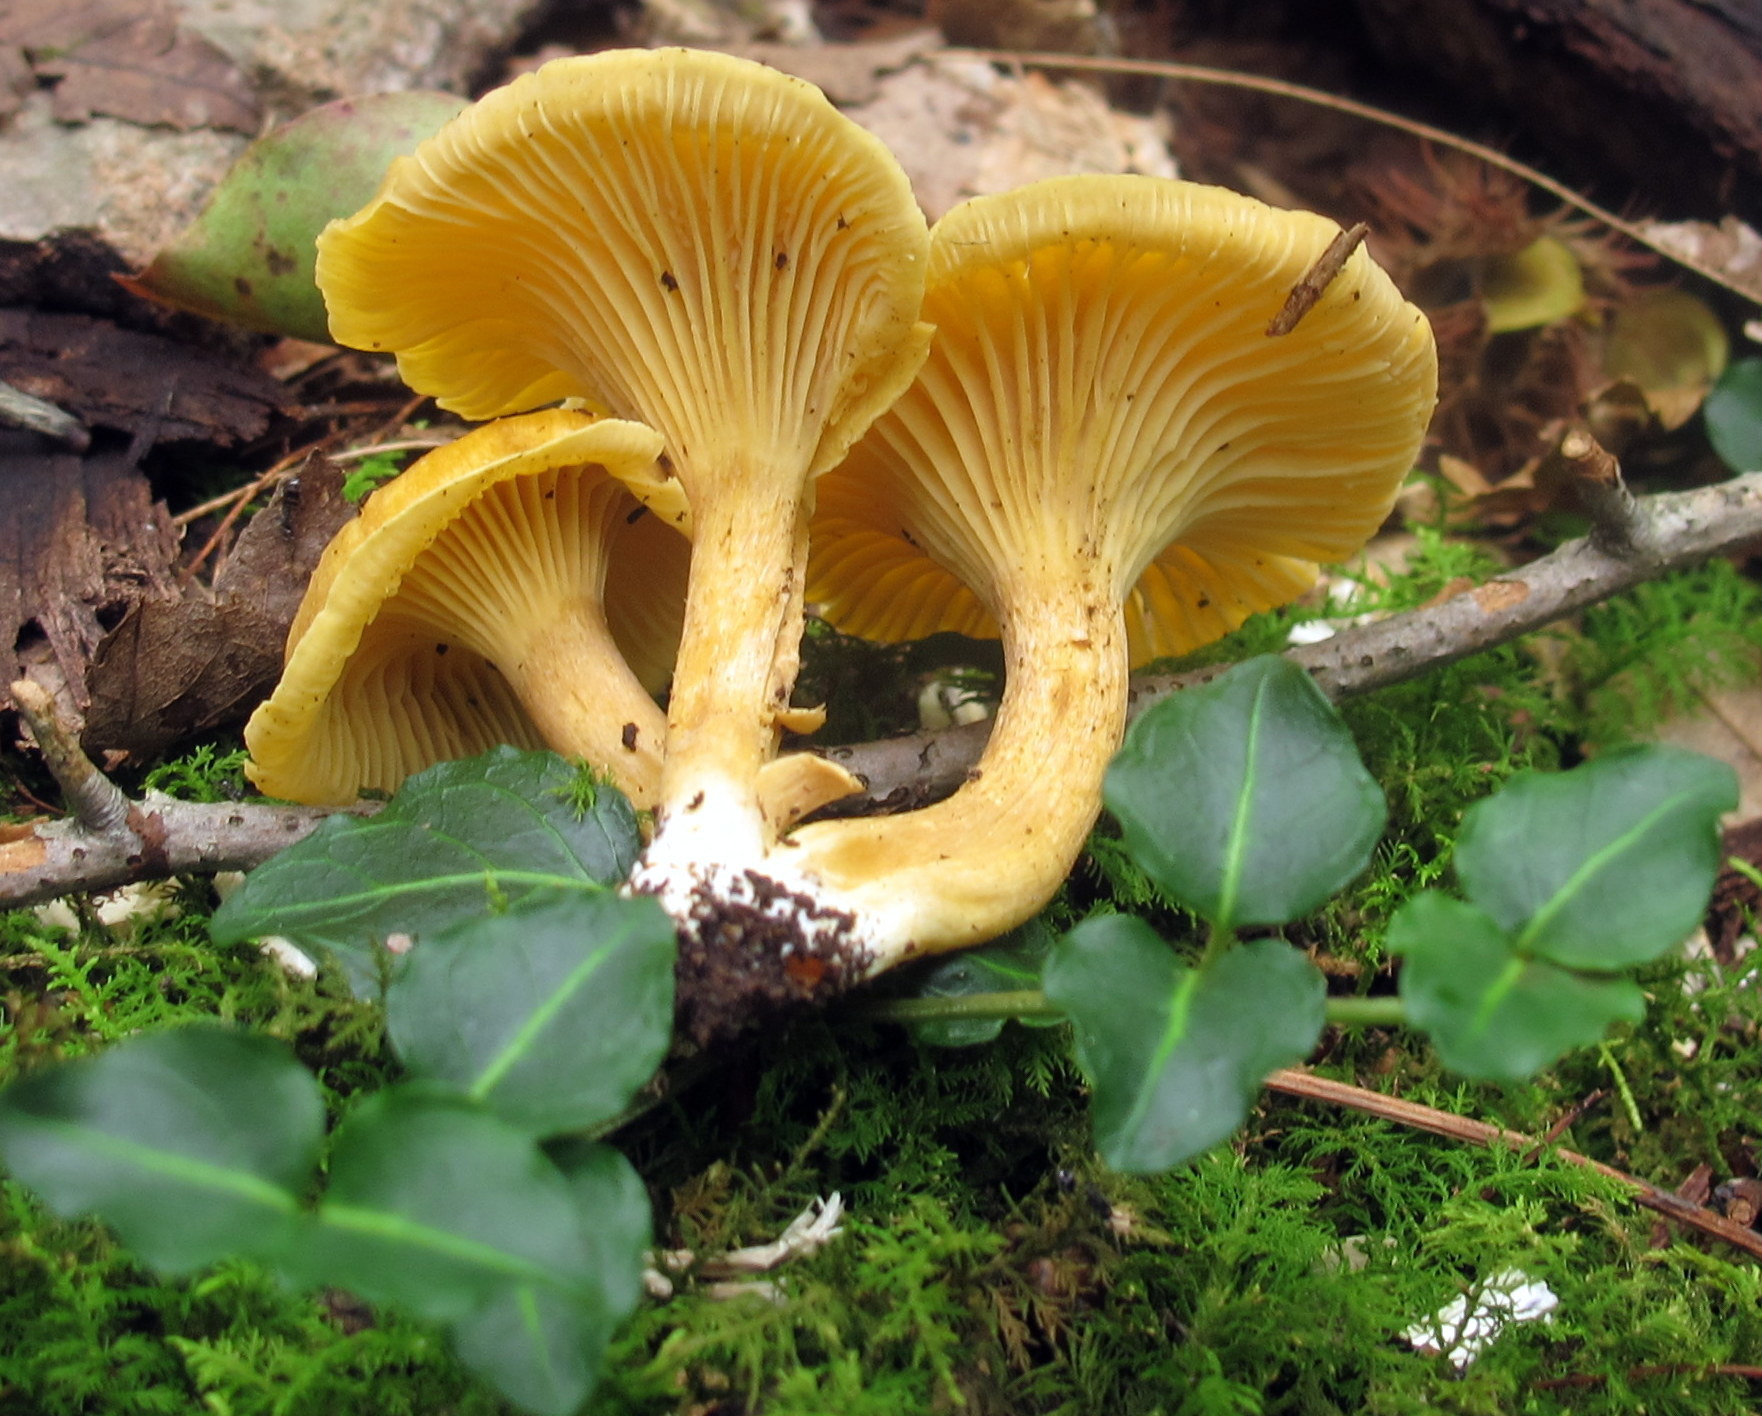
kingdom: Fungi
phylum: Basidiomycota
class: Agaricomycetes
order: Cantharellales
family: Hydnaceae
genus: Cantharellus
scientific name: Cantharellus appalachiensis
